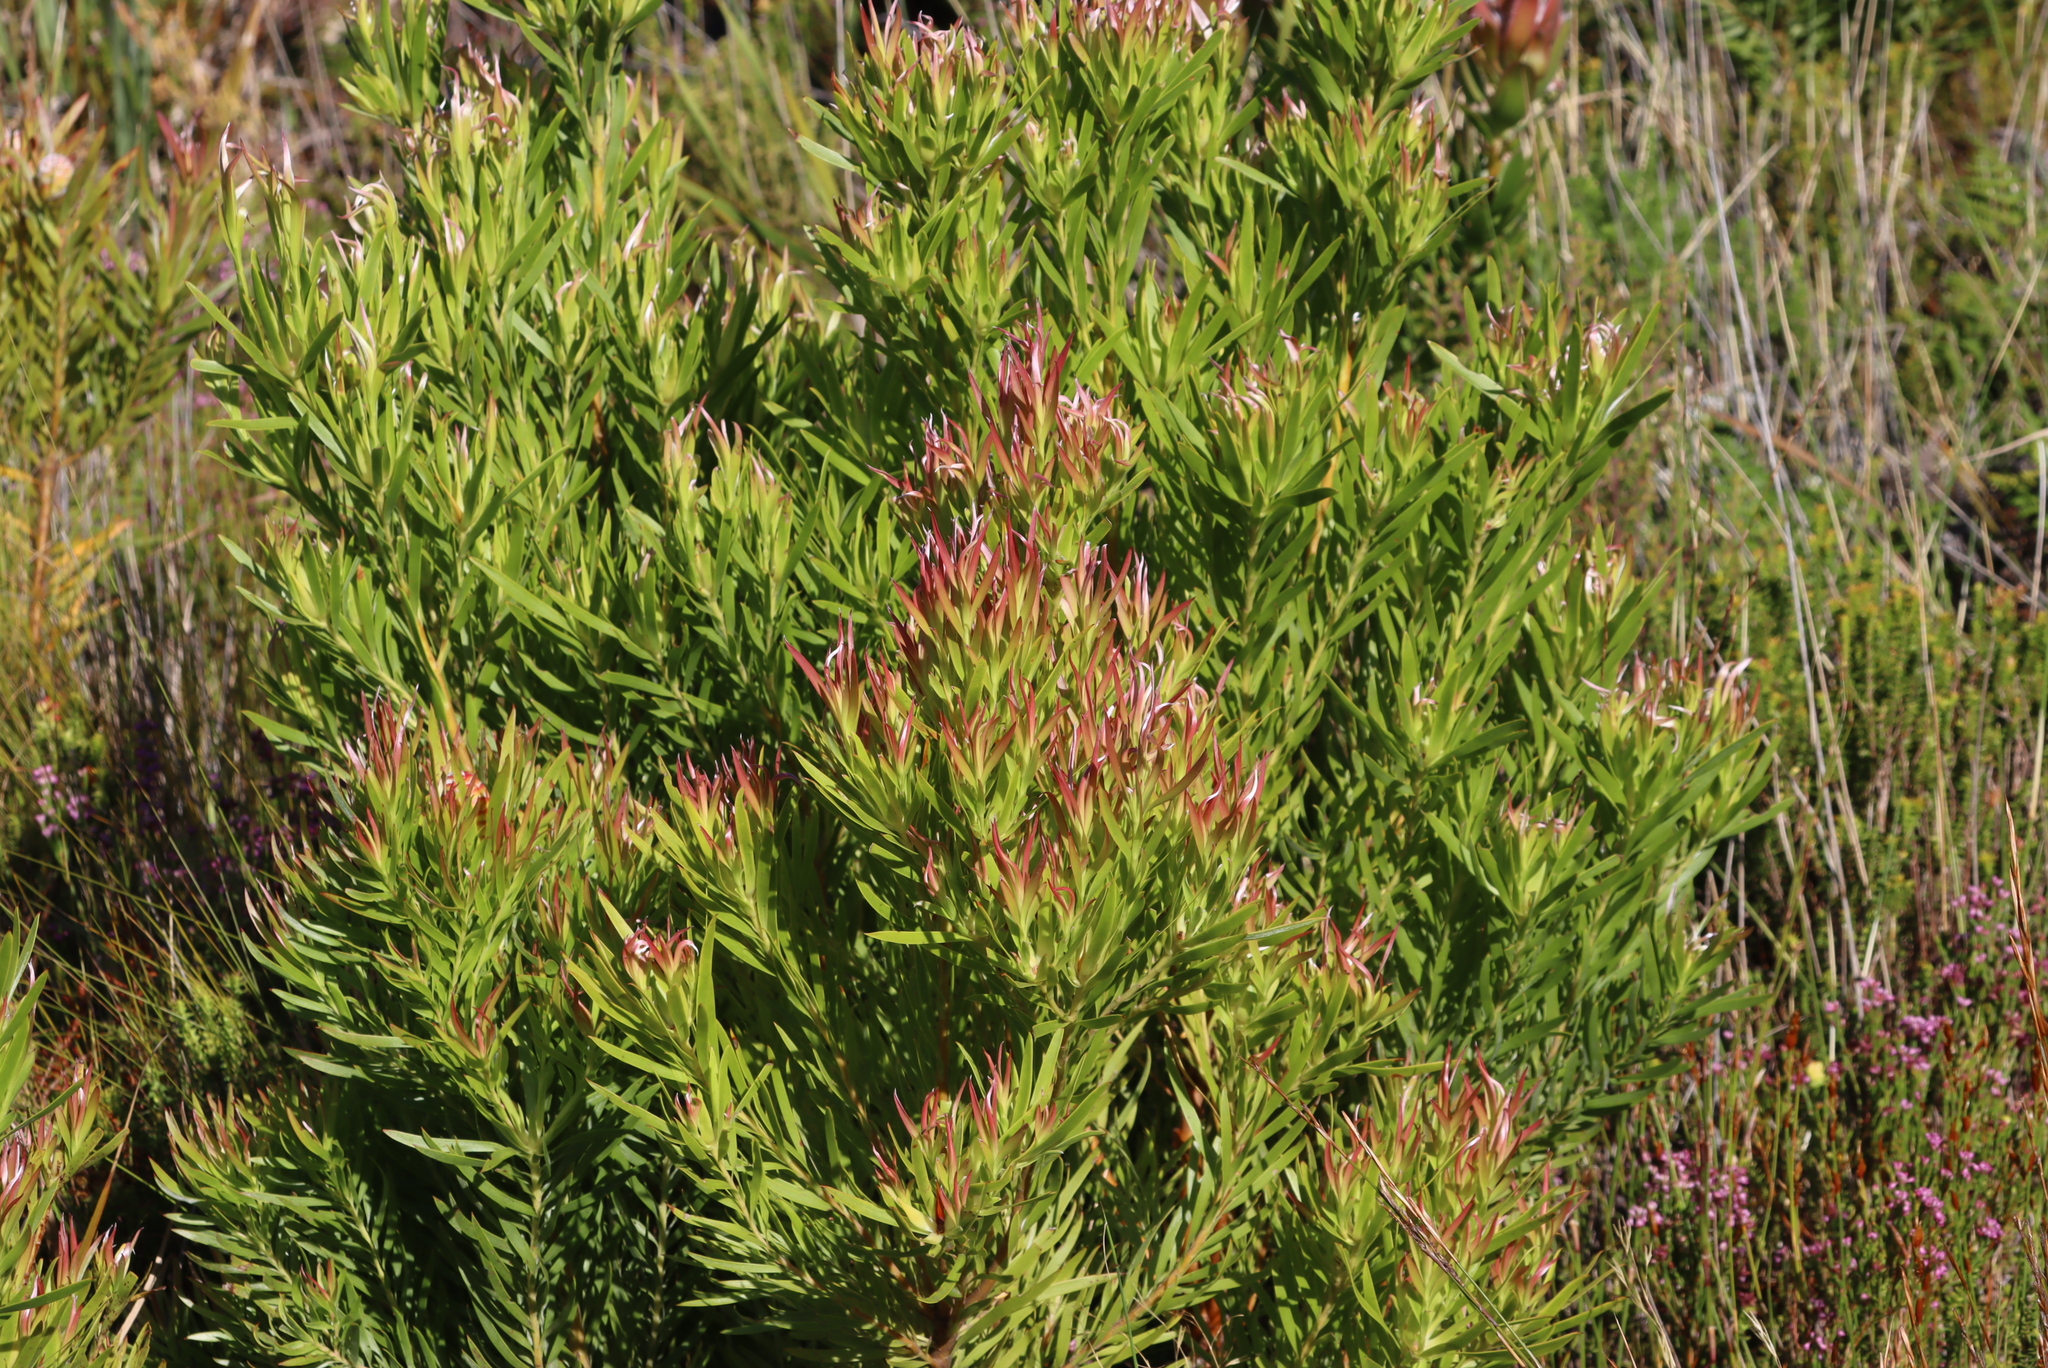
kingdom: Plantae
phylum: Tracheophyta
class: Magnoliopsida
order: Proteales
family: Proteaceae
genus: Leucadendron
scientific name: Leucadendron xanthoconus
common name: Sickle-leaf conebush
